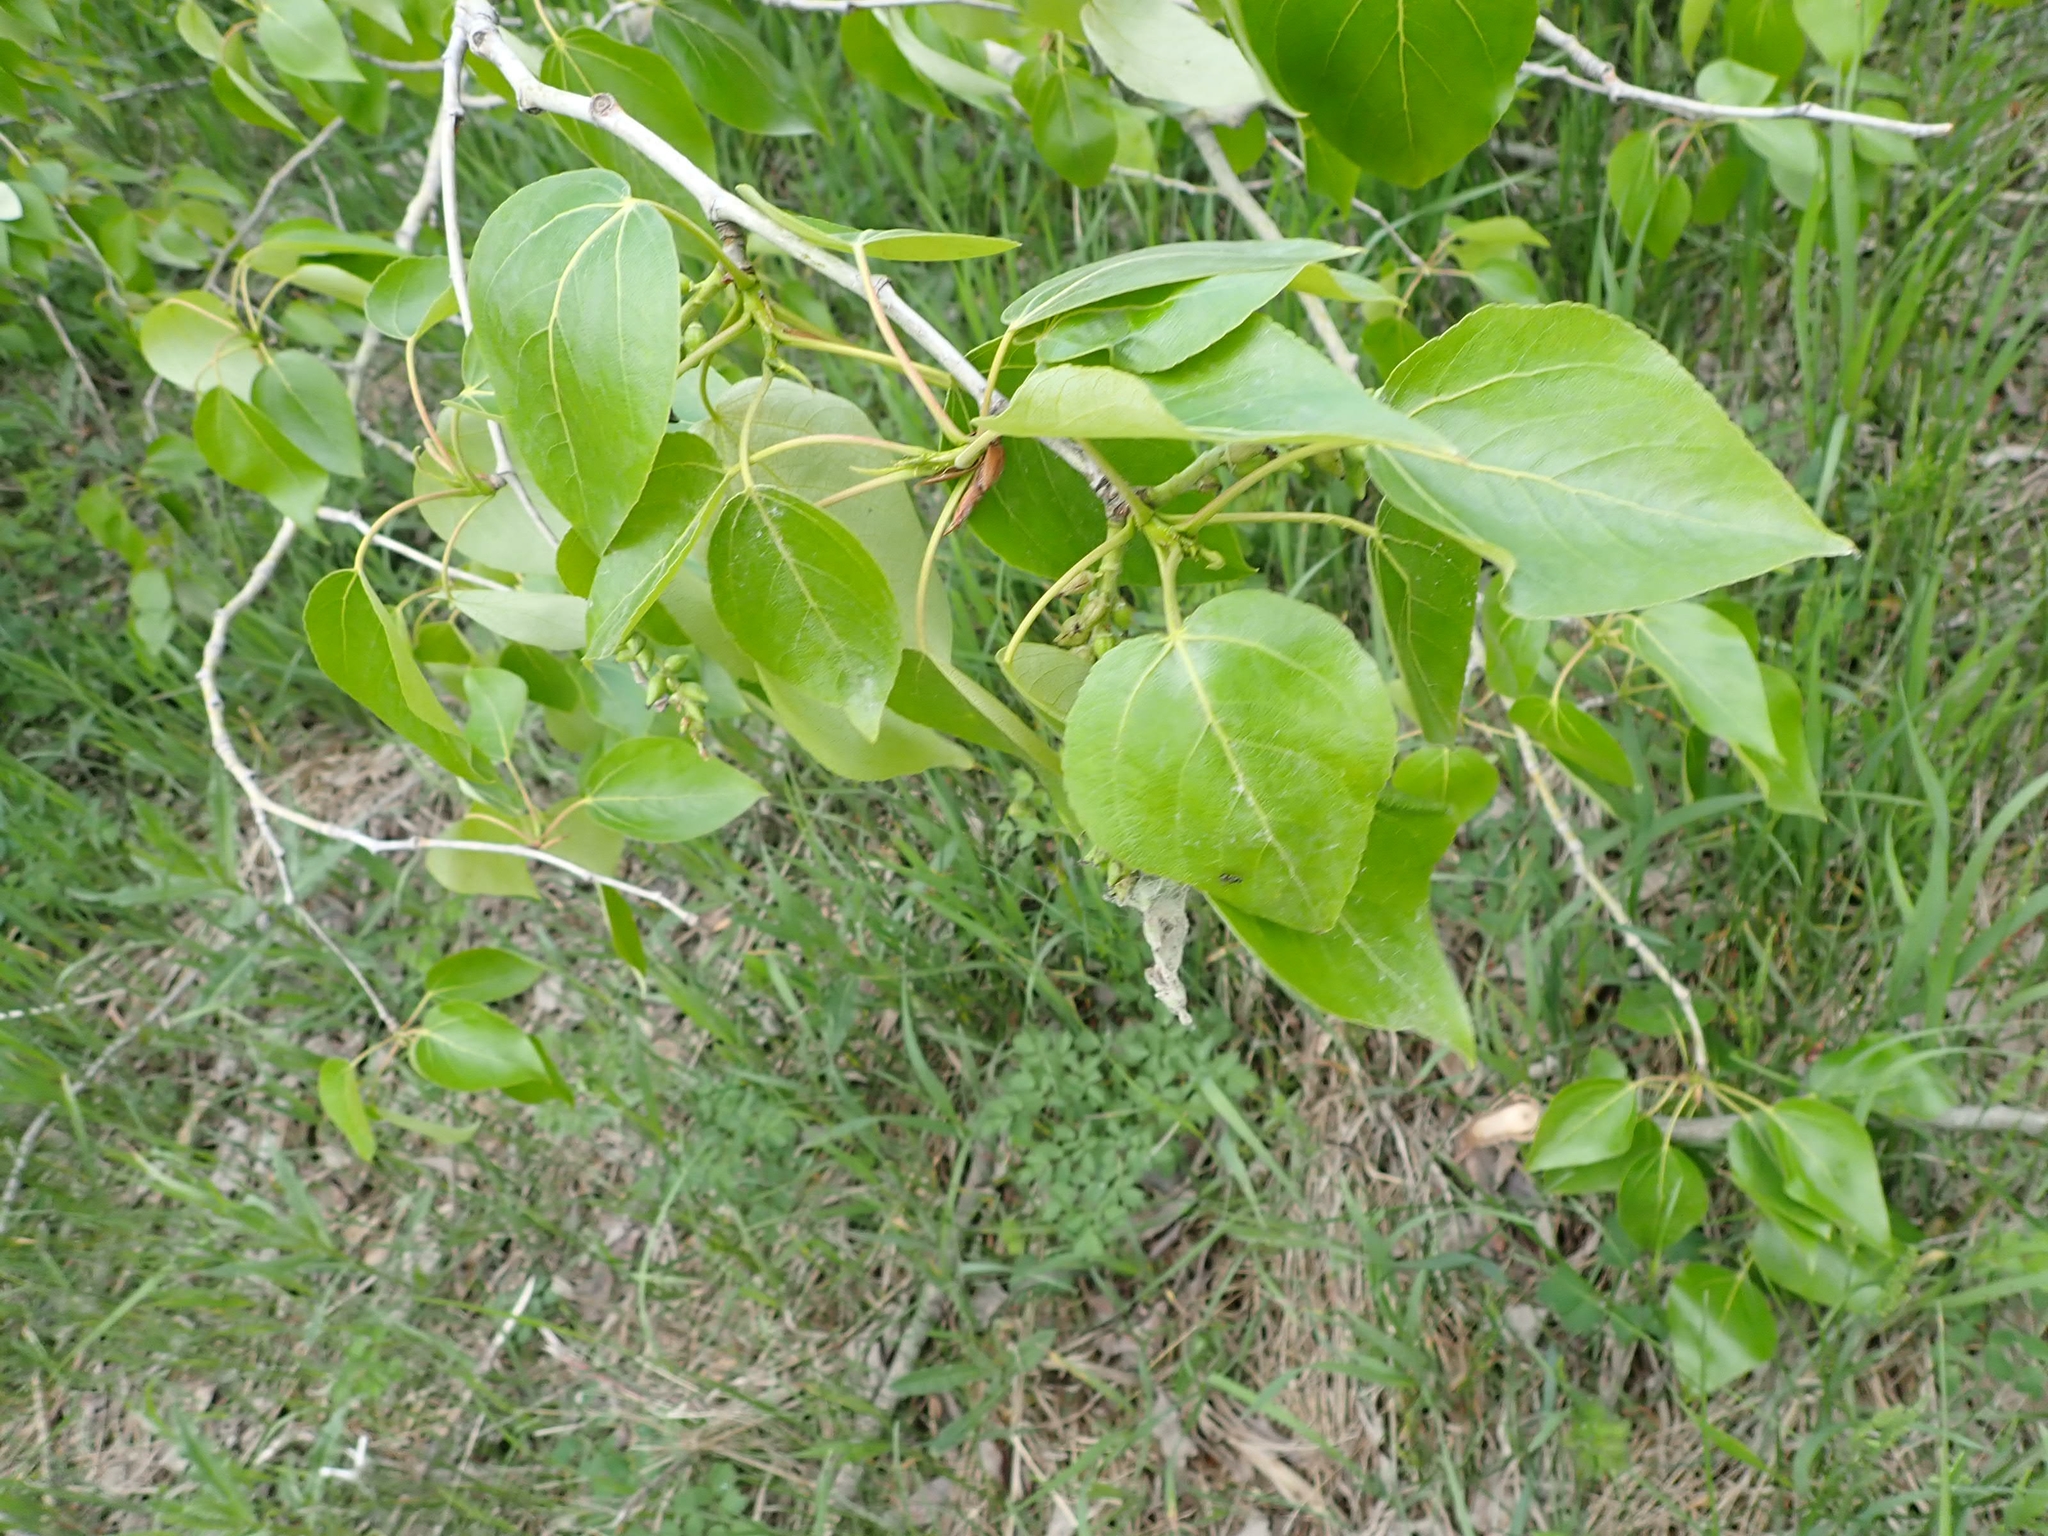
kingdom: Plantae
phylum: Tracheophyta
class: Magnoliopsida
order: Malpighiales
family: Salicaceae
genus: Populus
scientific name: Populus balsamifera
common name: Balsam poplar
